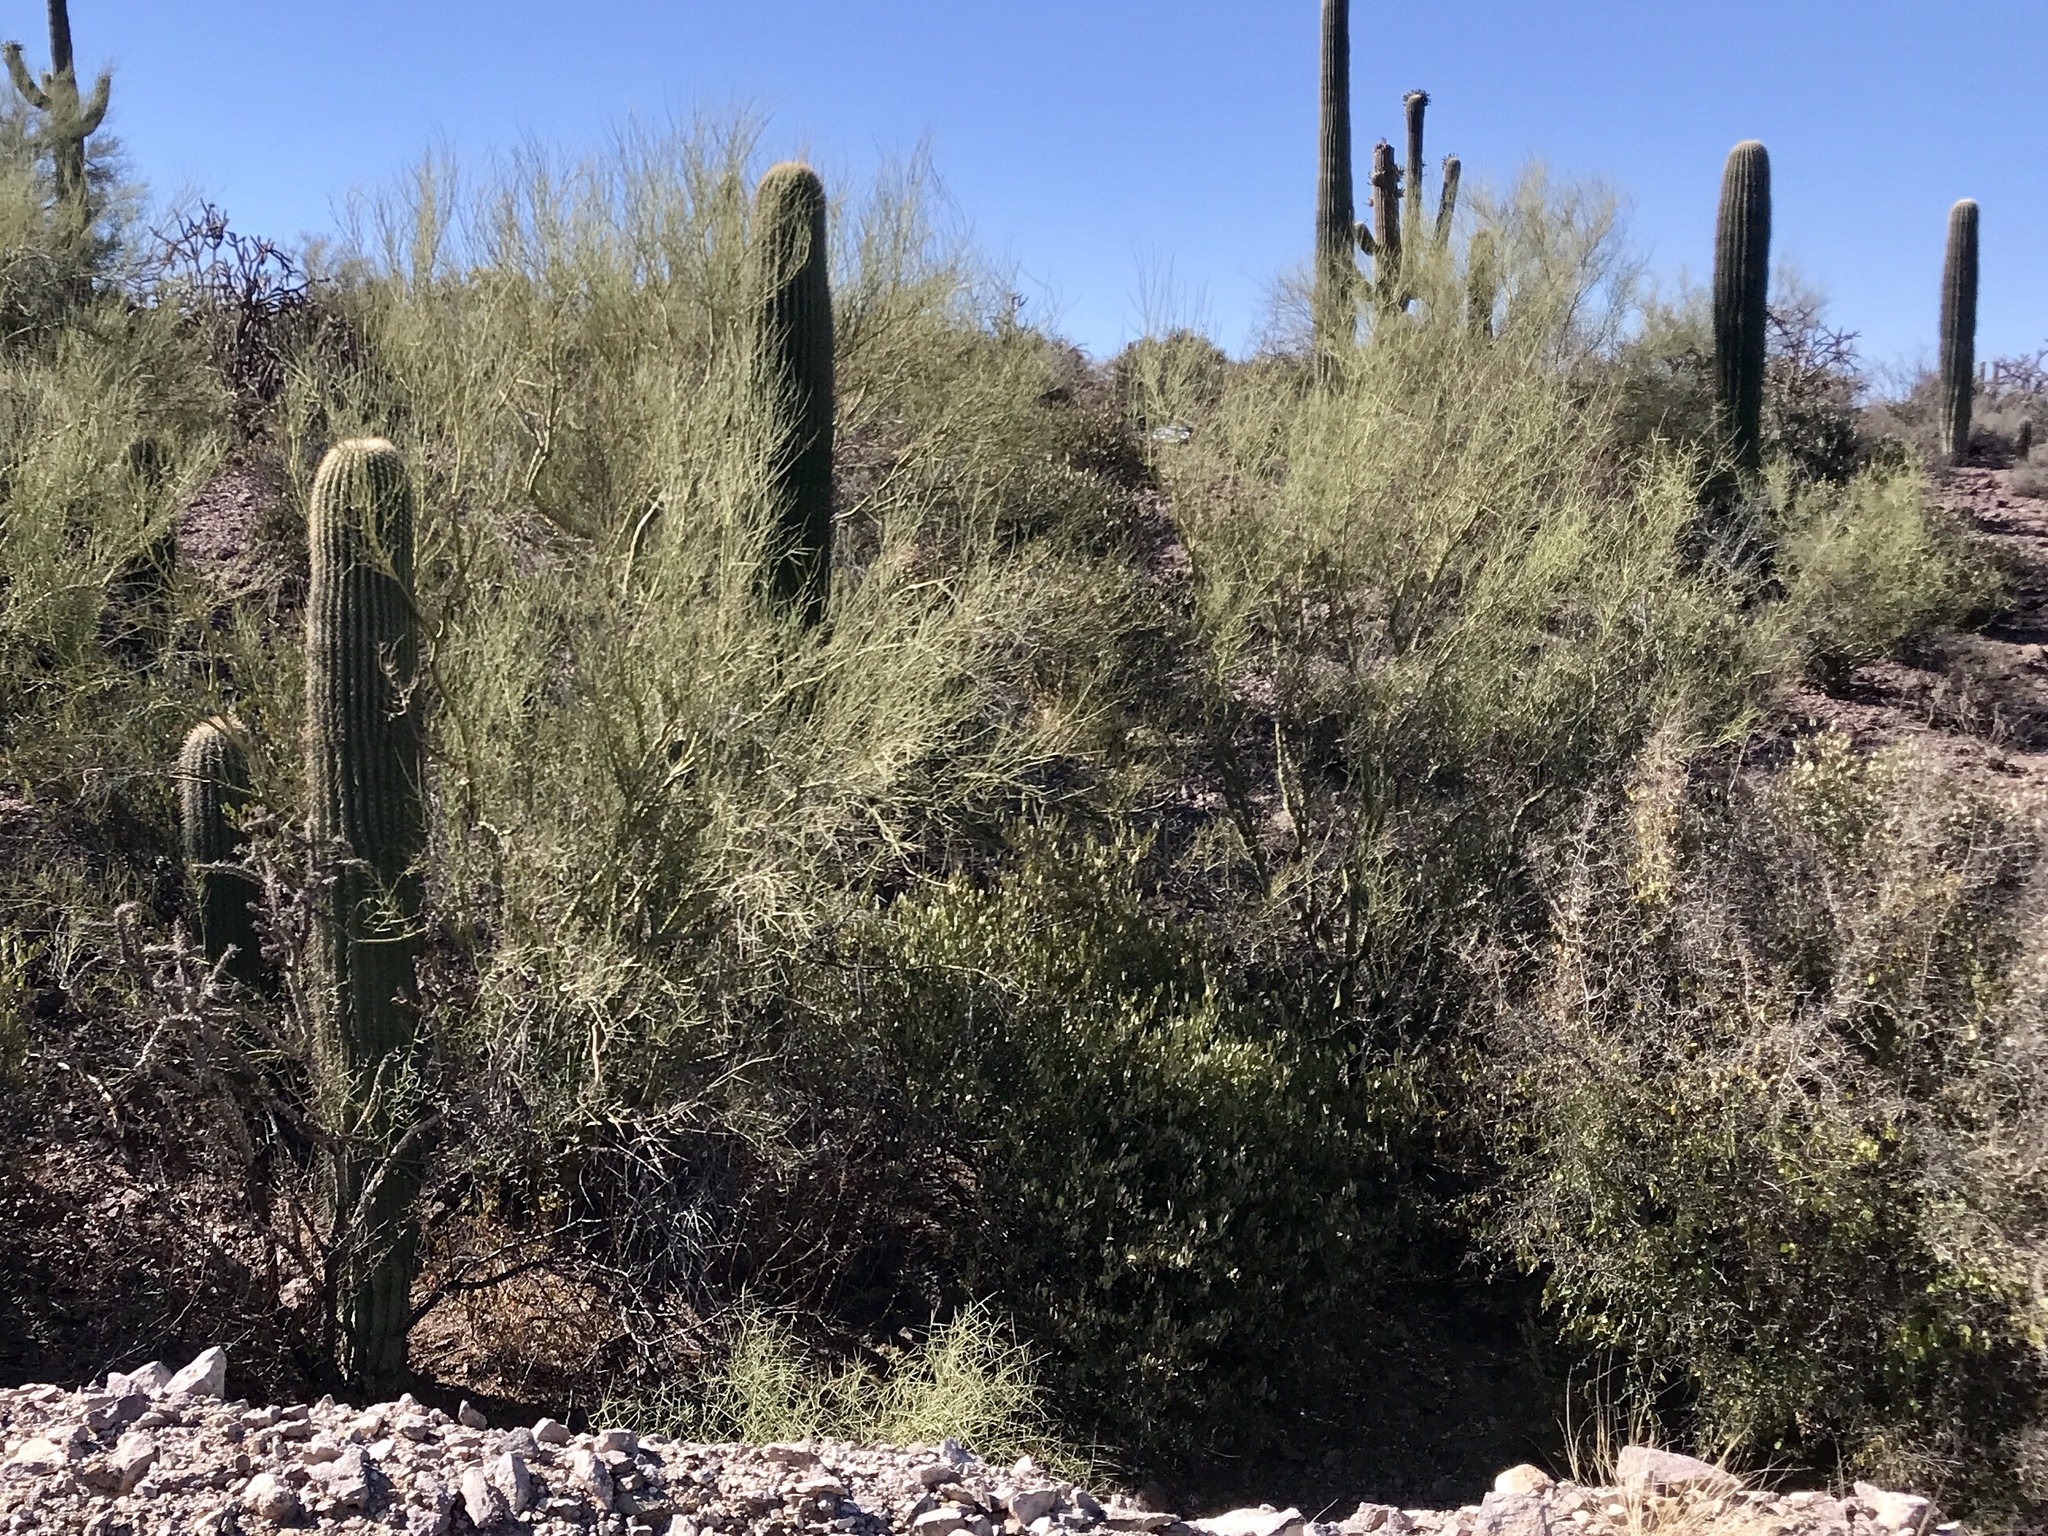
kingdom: Plantae
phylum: Tracheophyta
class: Magnoliopsida
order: Fabales
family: Fabaceae
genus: Parkinsonia
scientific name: Parkinsonia microphylla
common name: Yellow paloverde
